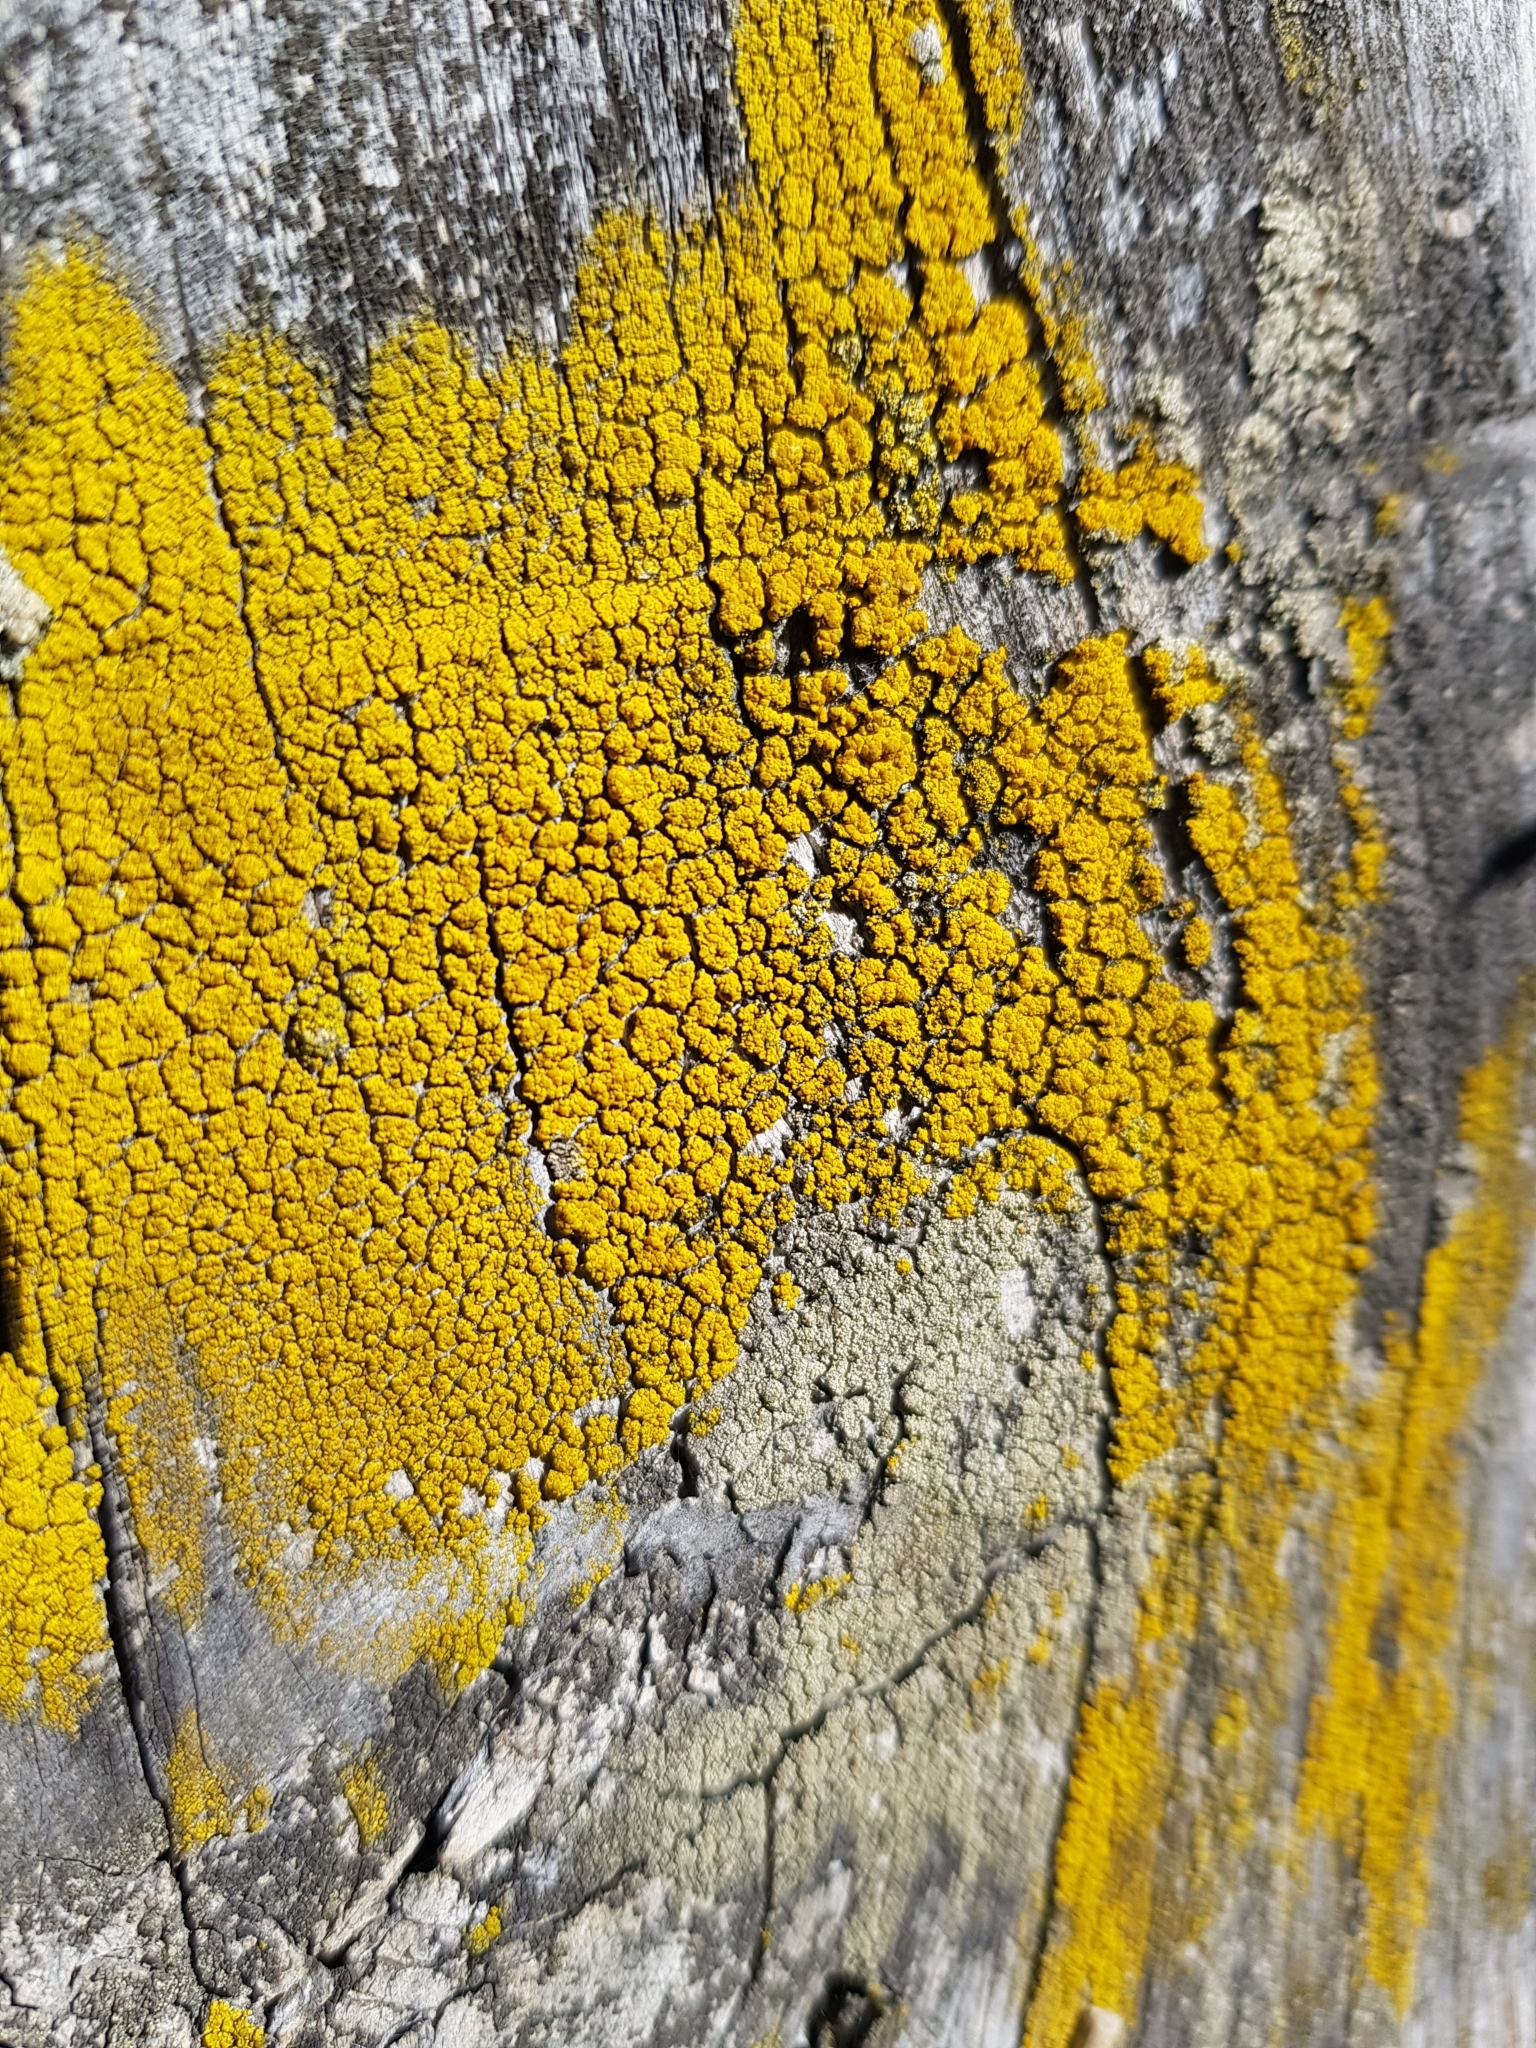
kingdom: Fungi
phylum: Ascomycota
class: Candelariomycetes
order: Candelariales
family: Candelariaceae
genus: Candelaria
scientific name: Candelaria concolor
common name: Candleflame lichen
